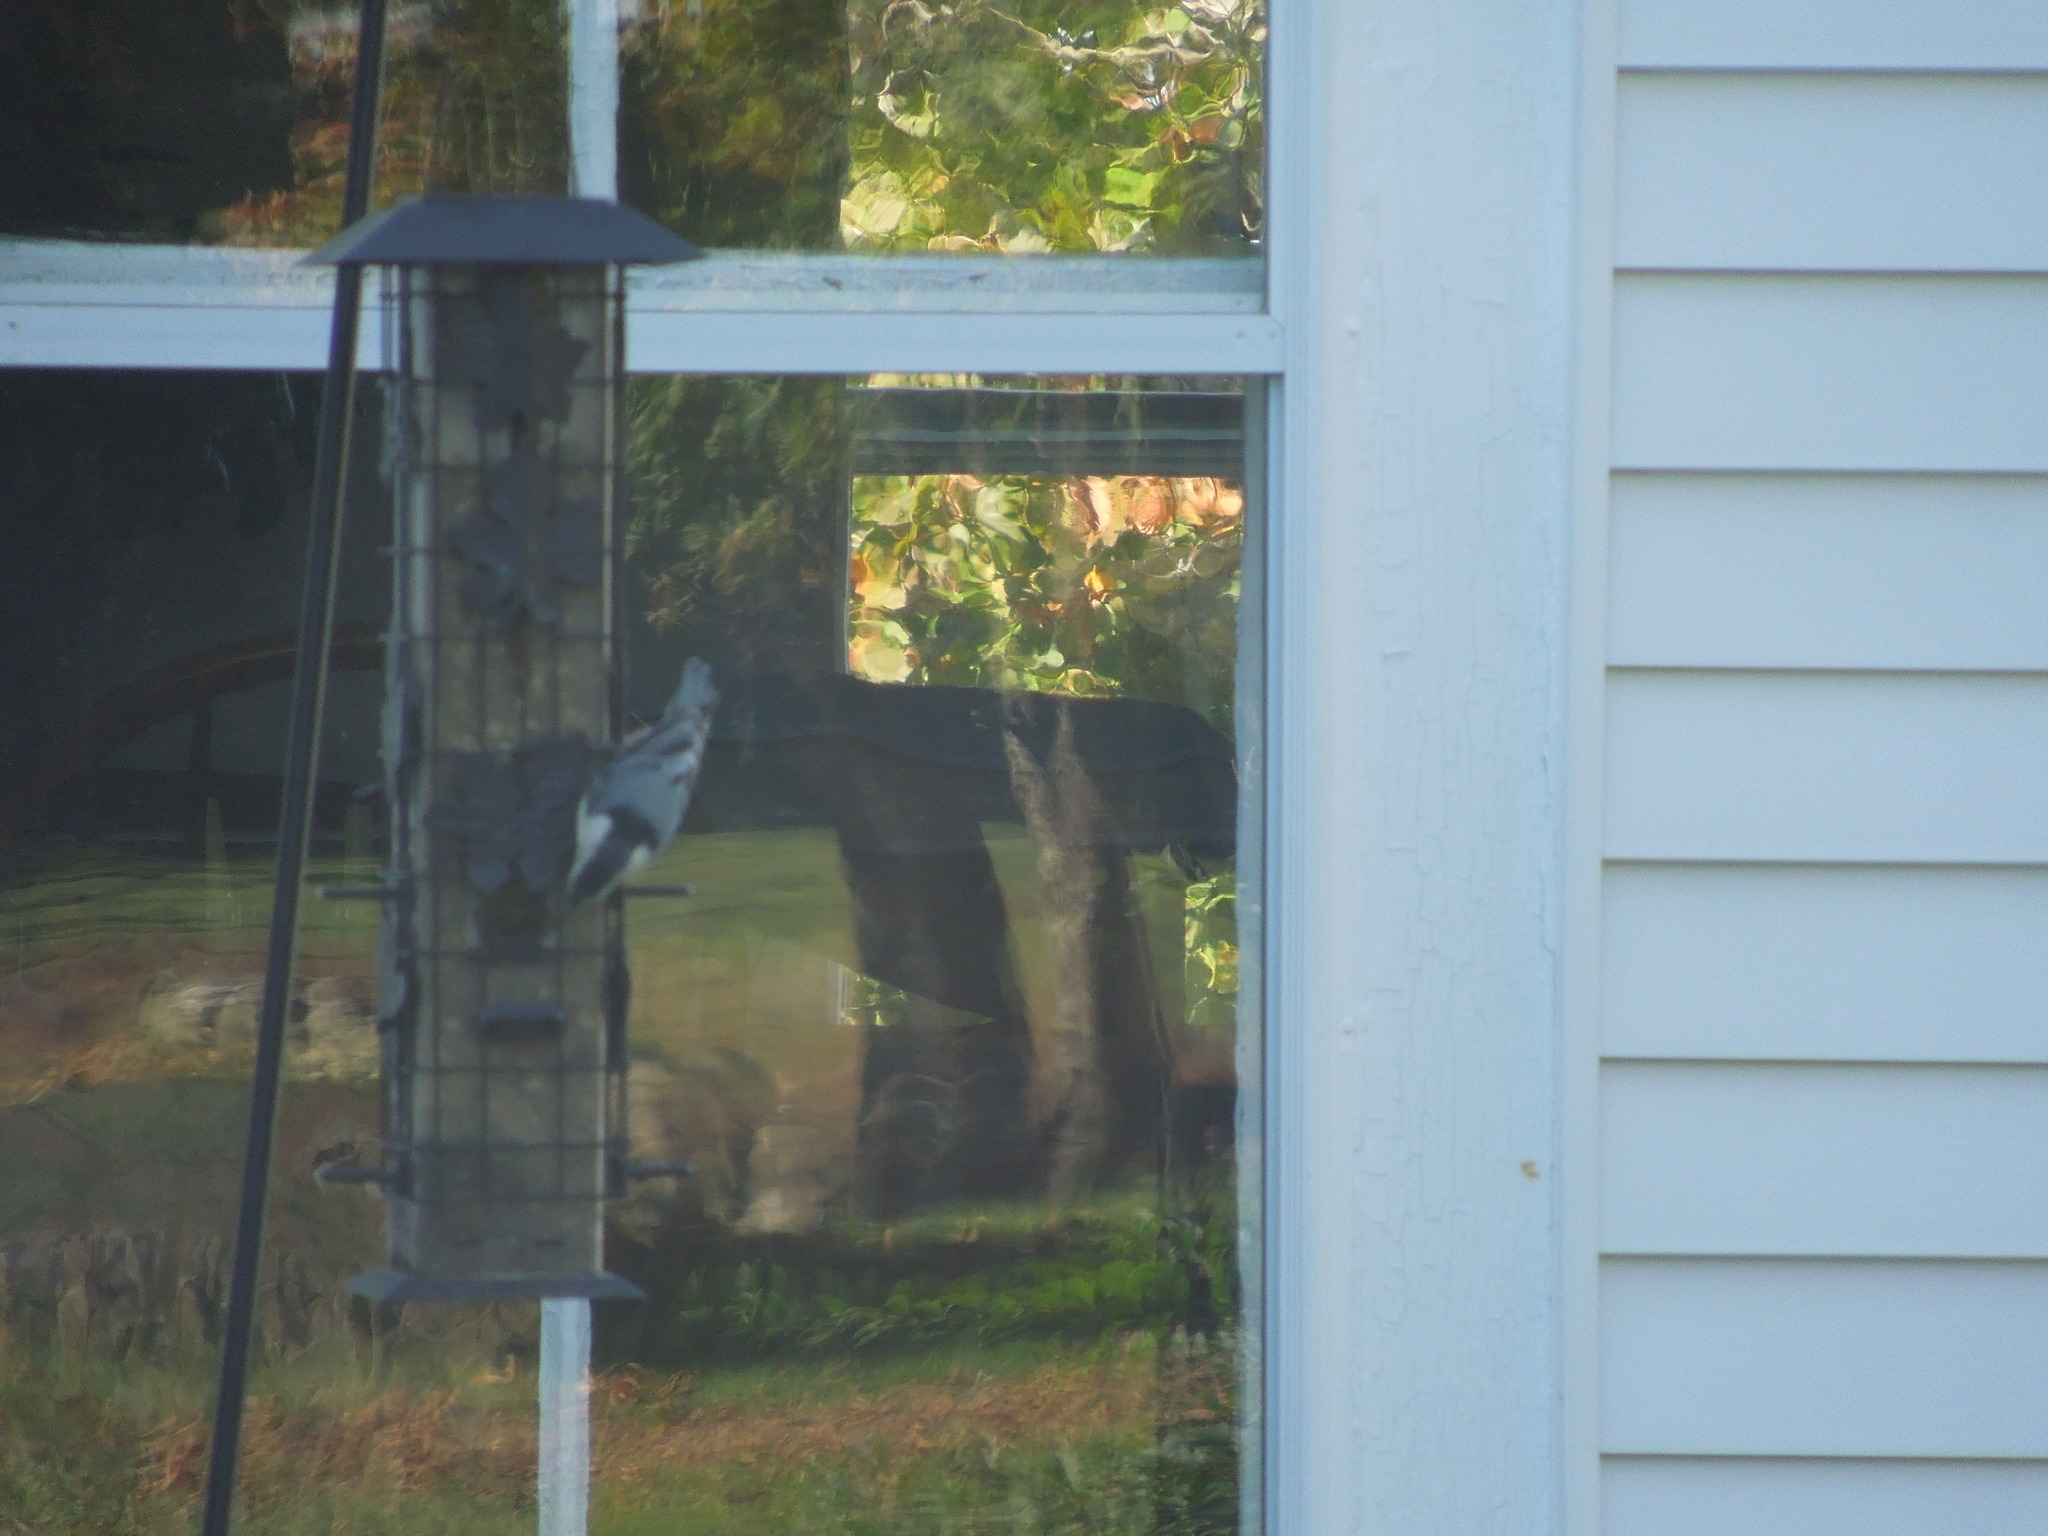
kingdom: Animalia
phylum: Chordata
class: Aves
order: Passeriformes
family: Sittidae
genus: Sitta
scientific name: Sitta carolinensis
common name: White-breasted nuthatch
